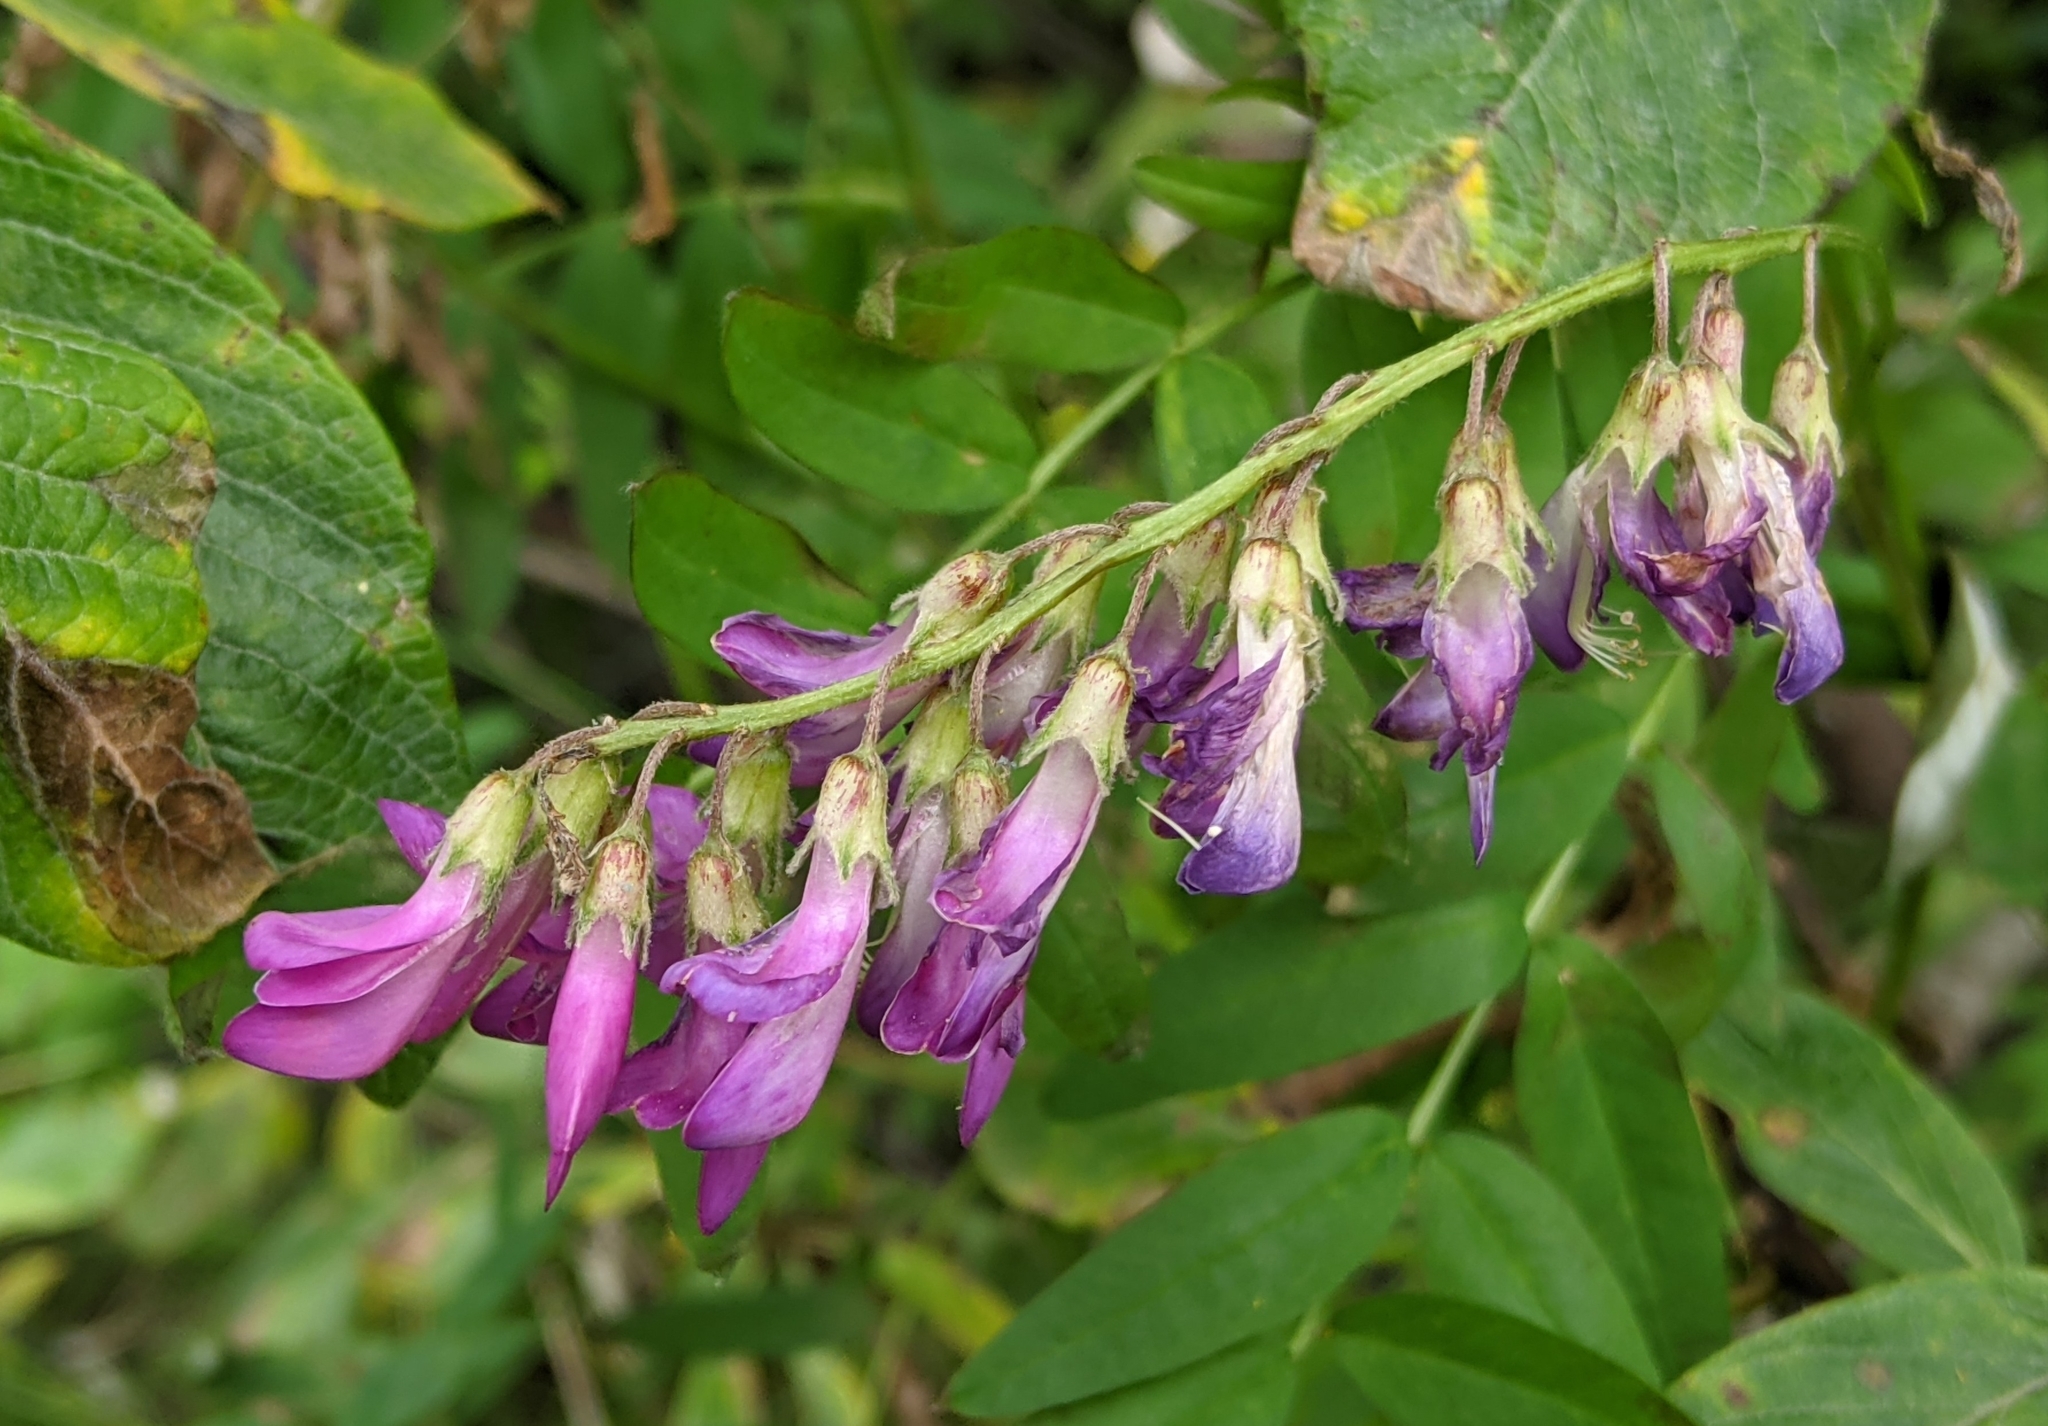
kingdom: Plantae
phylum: Tracheophyta
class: Magnoliopsida
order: Fabales
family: Fabaceae
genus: Hedysarum
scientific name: Hedysarum alpinum
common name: Alpine sweet-vetch
